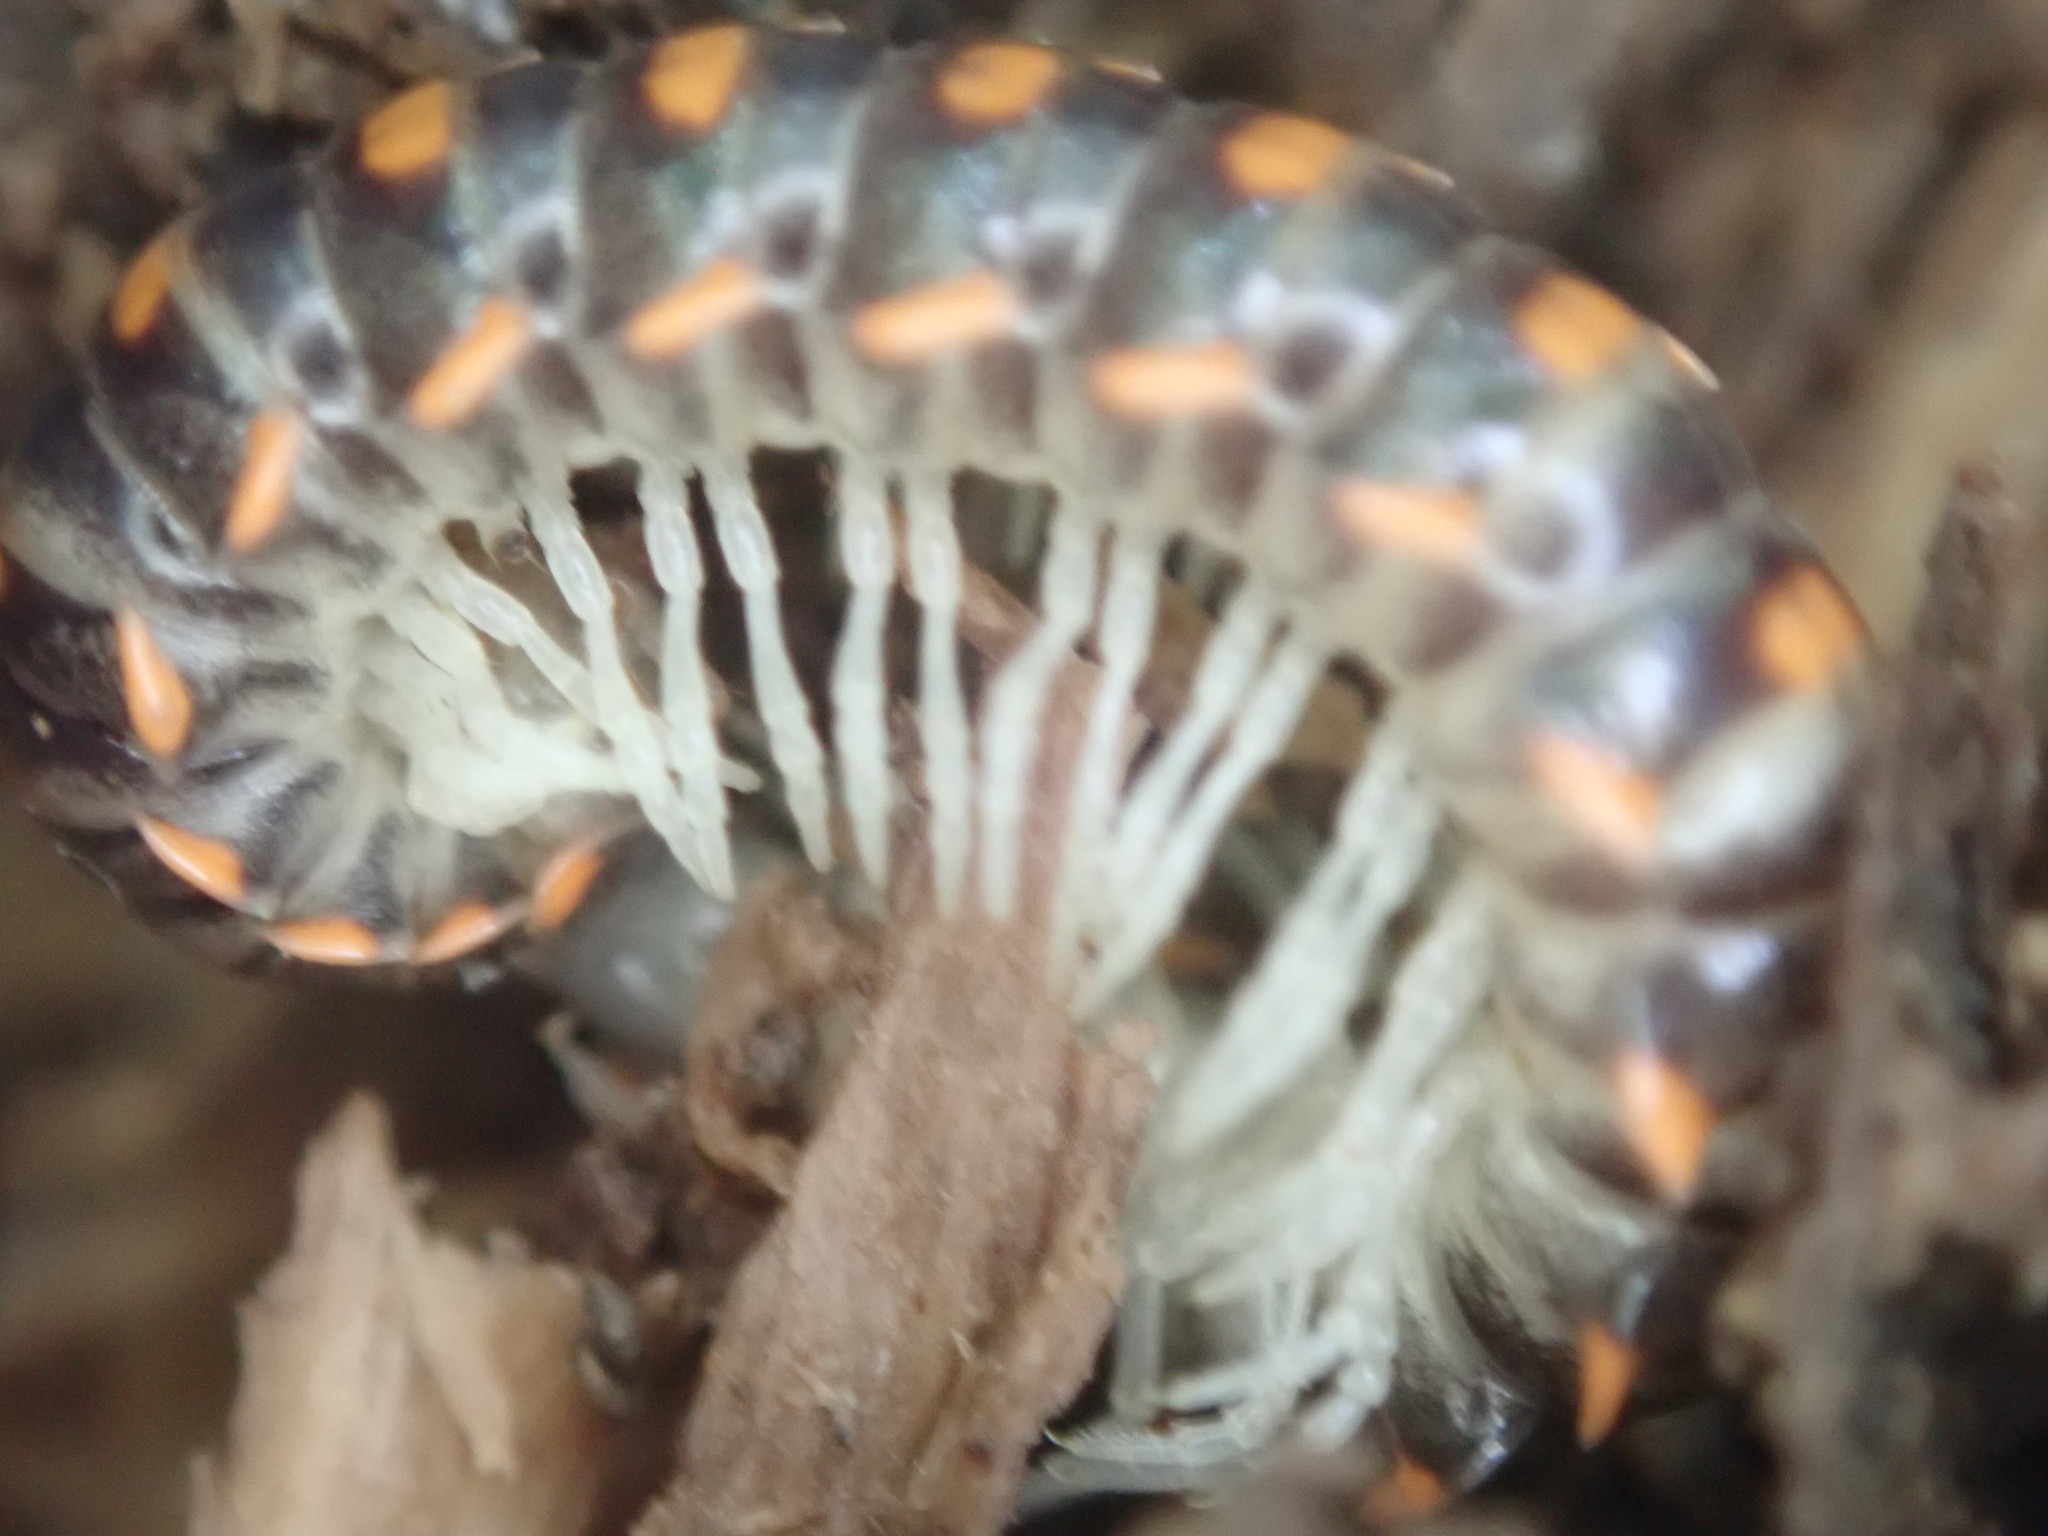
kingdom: Animalia
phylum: Arthropoda
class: Diplopoda
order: Polydesmida
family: Xystodesmidae
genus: Euryurus
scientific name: Euryurus leachii
